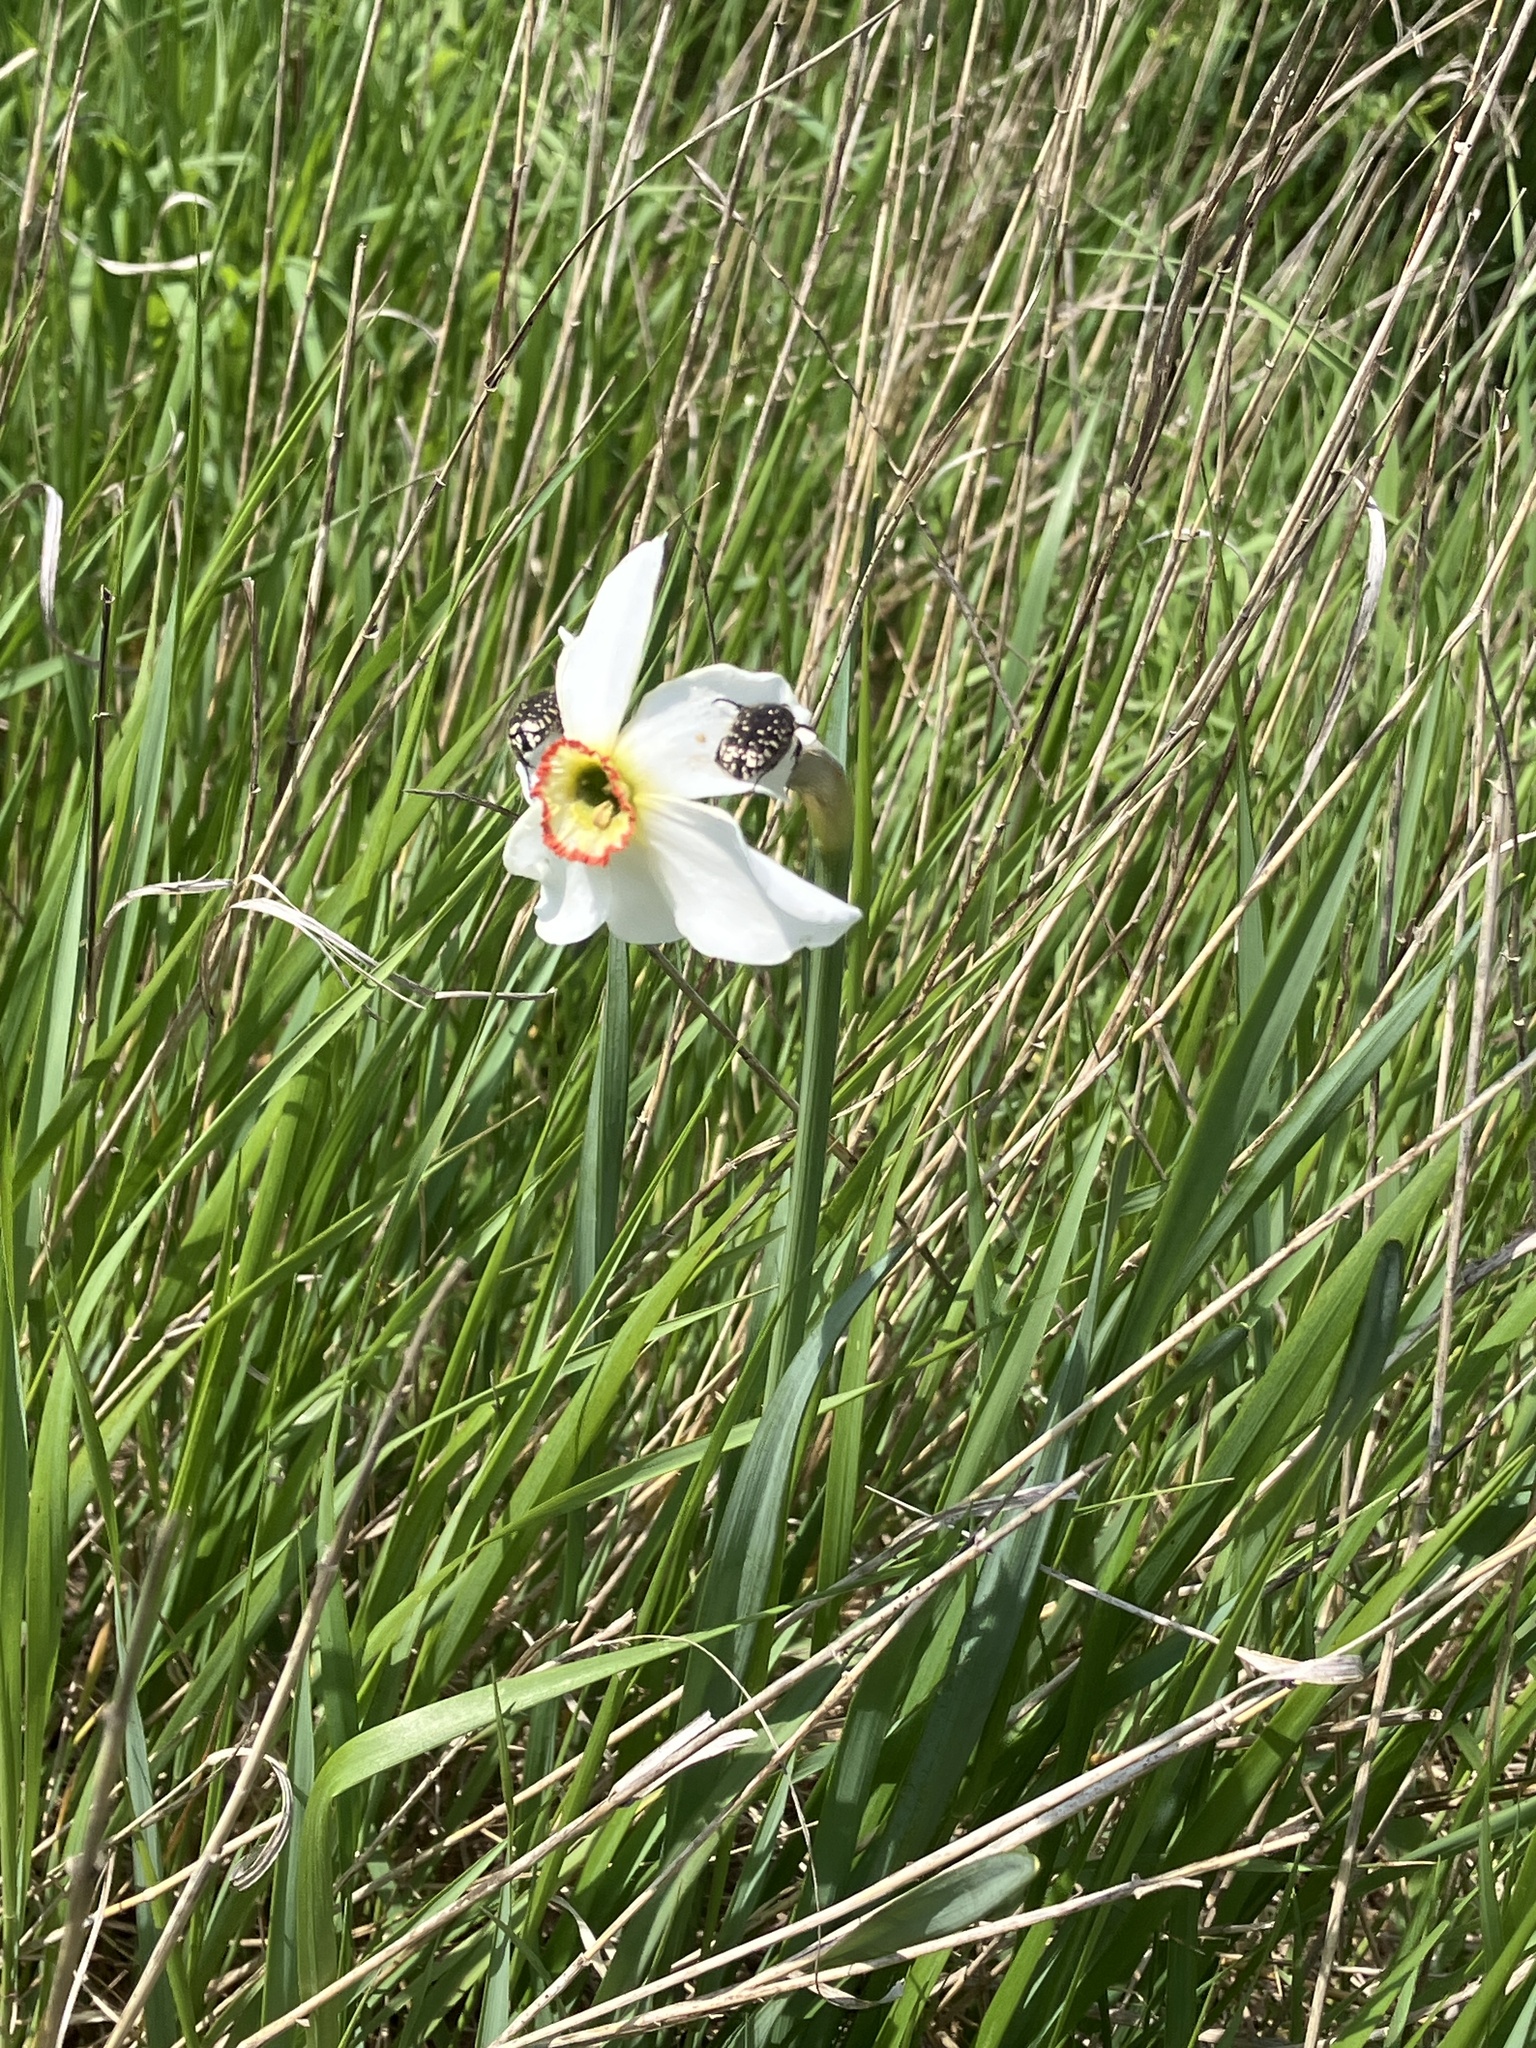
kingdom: Plantae
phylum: Tracheophyta
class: Liliopsida
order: Asparagales
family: Amaryllidaceae
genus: Narcissus
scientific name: Narcissus poeticus
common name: Pheasant's-eye daffodil
